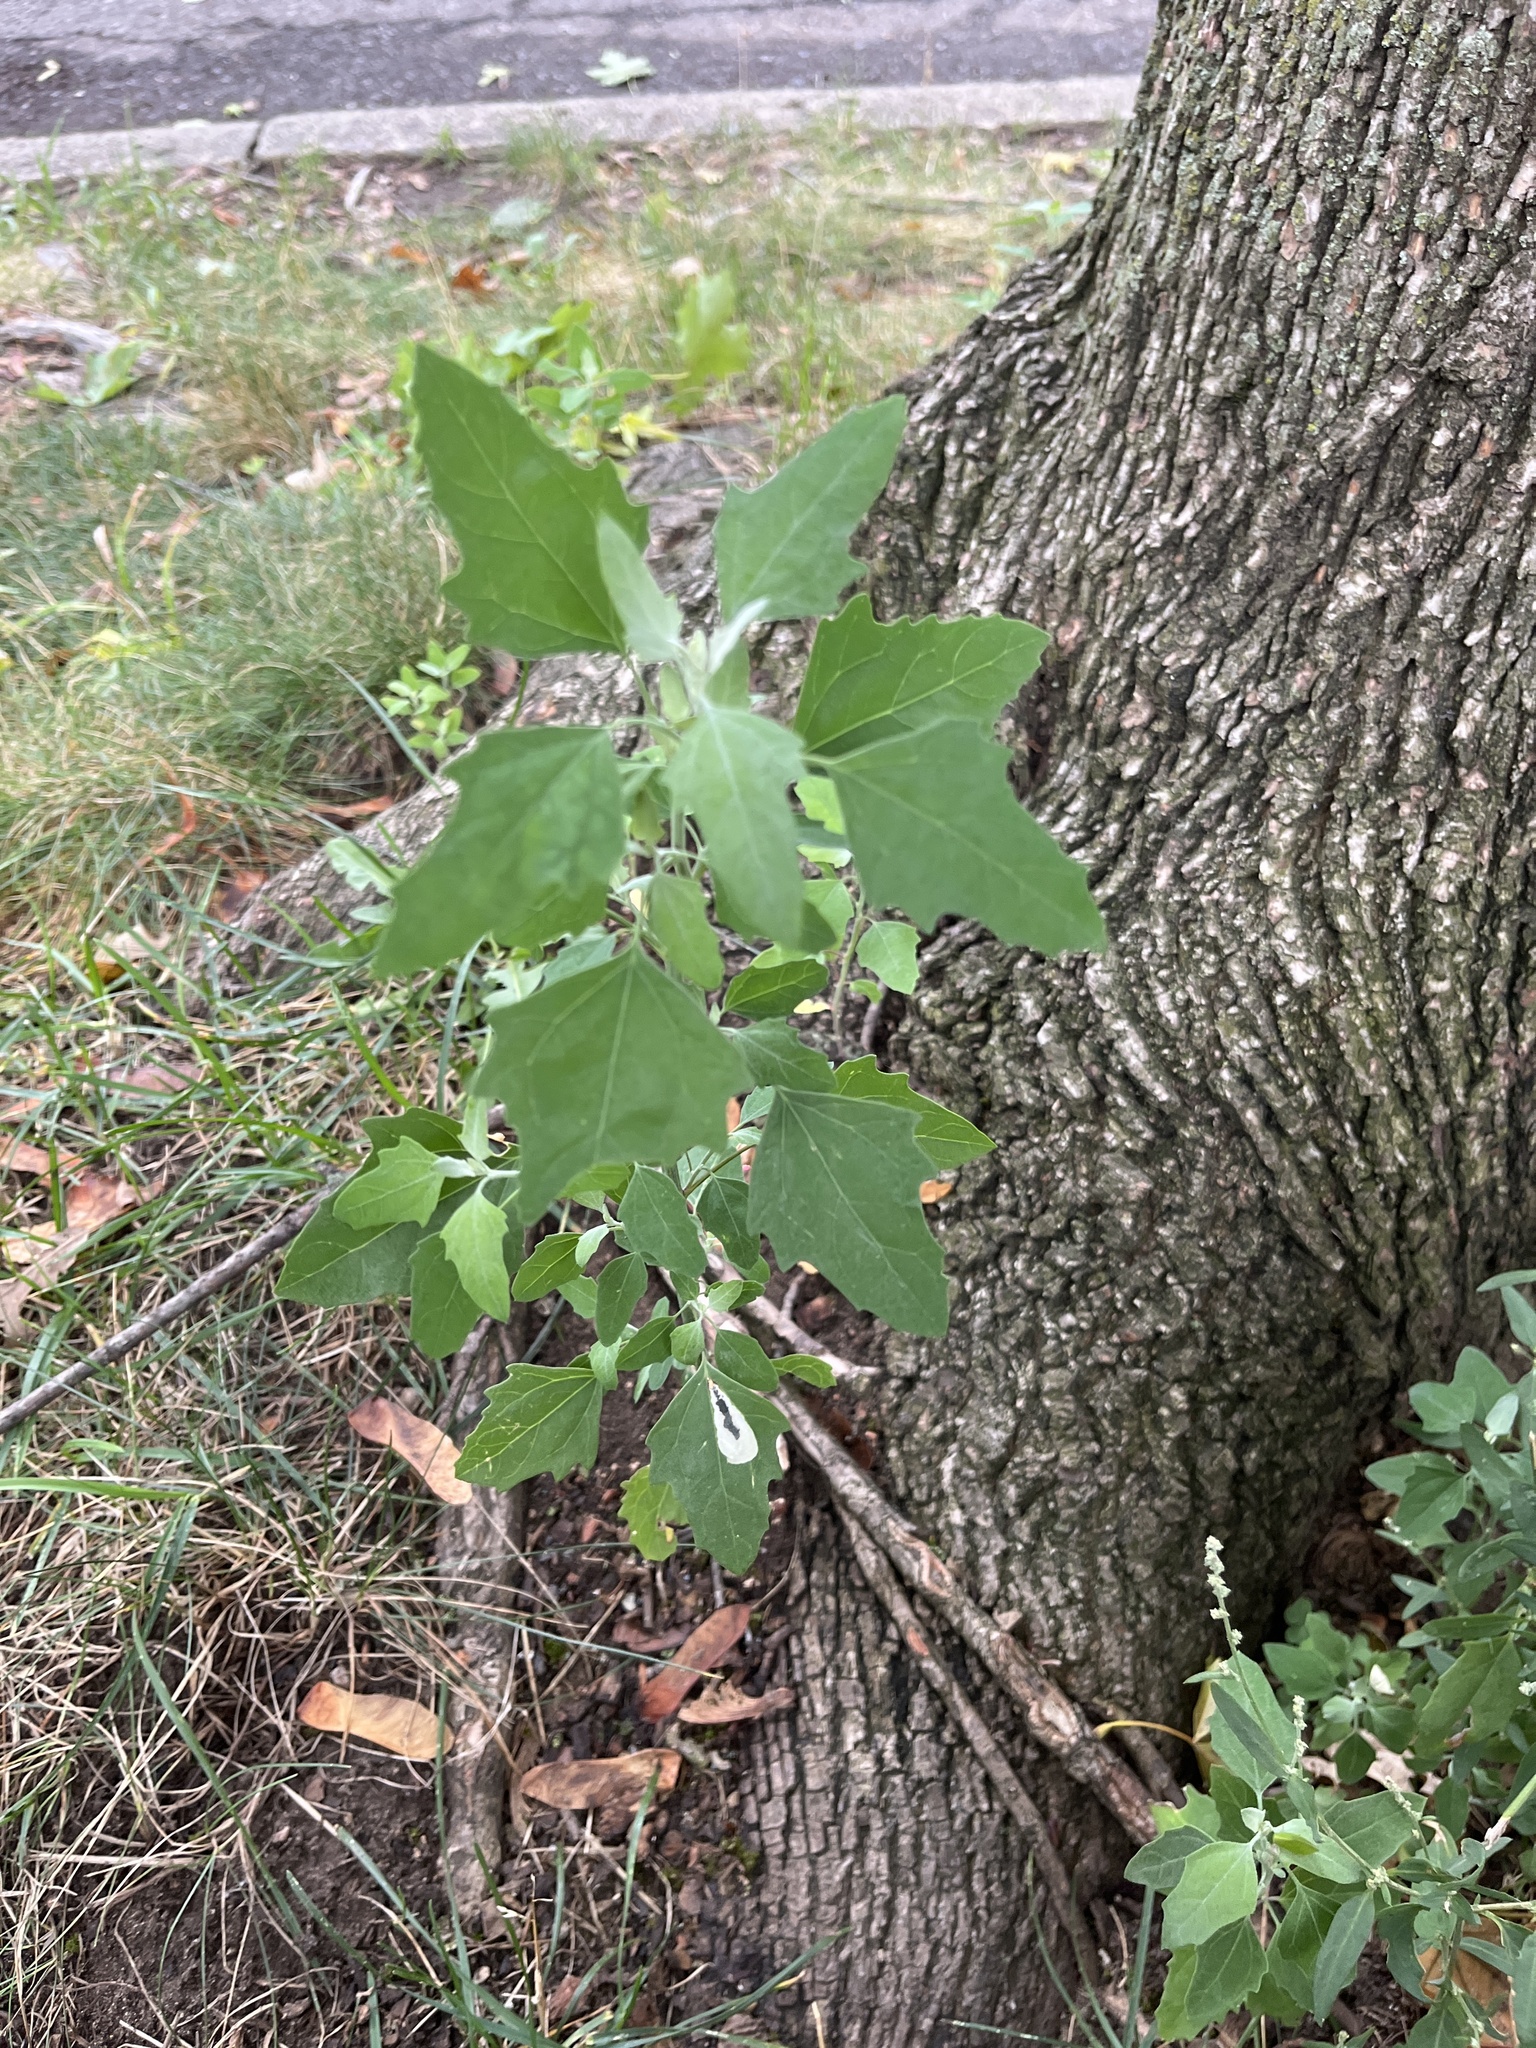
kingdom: Plantae
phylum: Tracheophyta
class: Magnoliopsida
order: Caryophyllales
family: Amaranthaceae
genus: Chenopodium
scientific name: Chenopodium album
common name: Fat-hen
